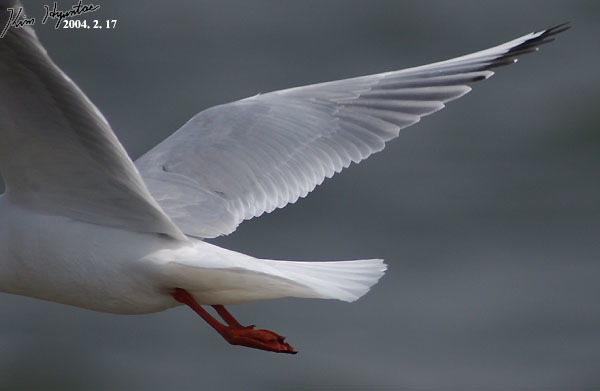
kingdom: Animalia
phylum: Chordata
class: Aves
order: Charadriiformes
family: Laridae
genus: Chroicocephalus
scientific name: Chroicocephalus ridibundus
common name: Black-headed gull
